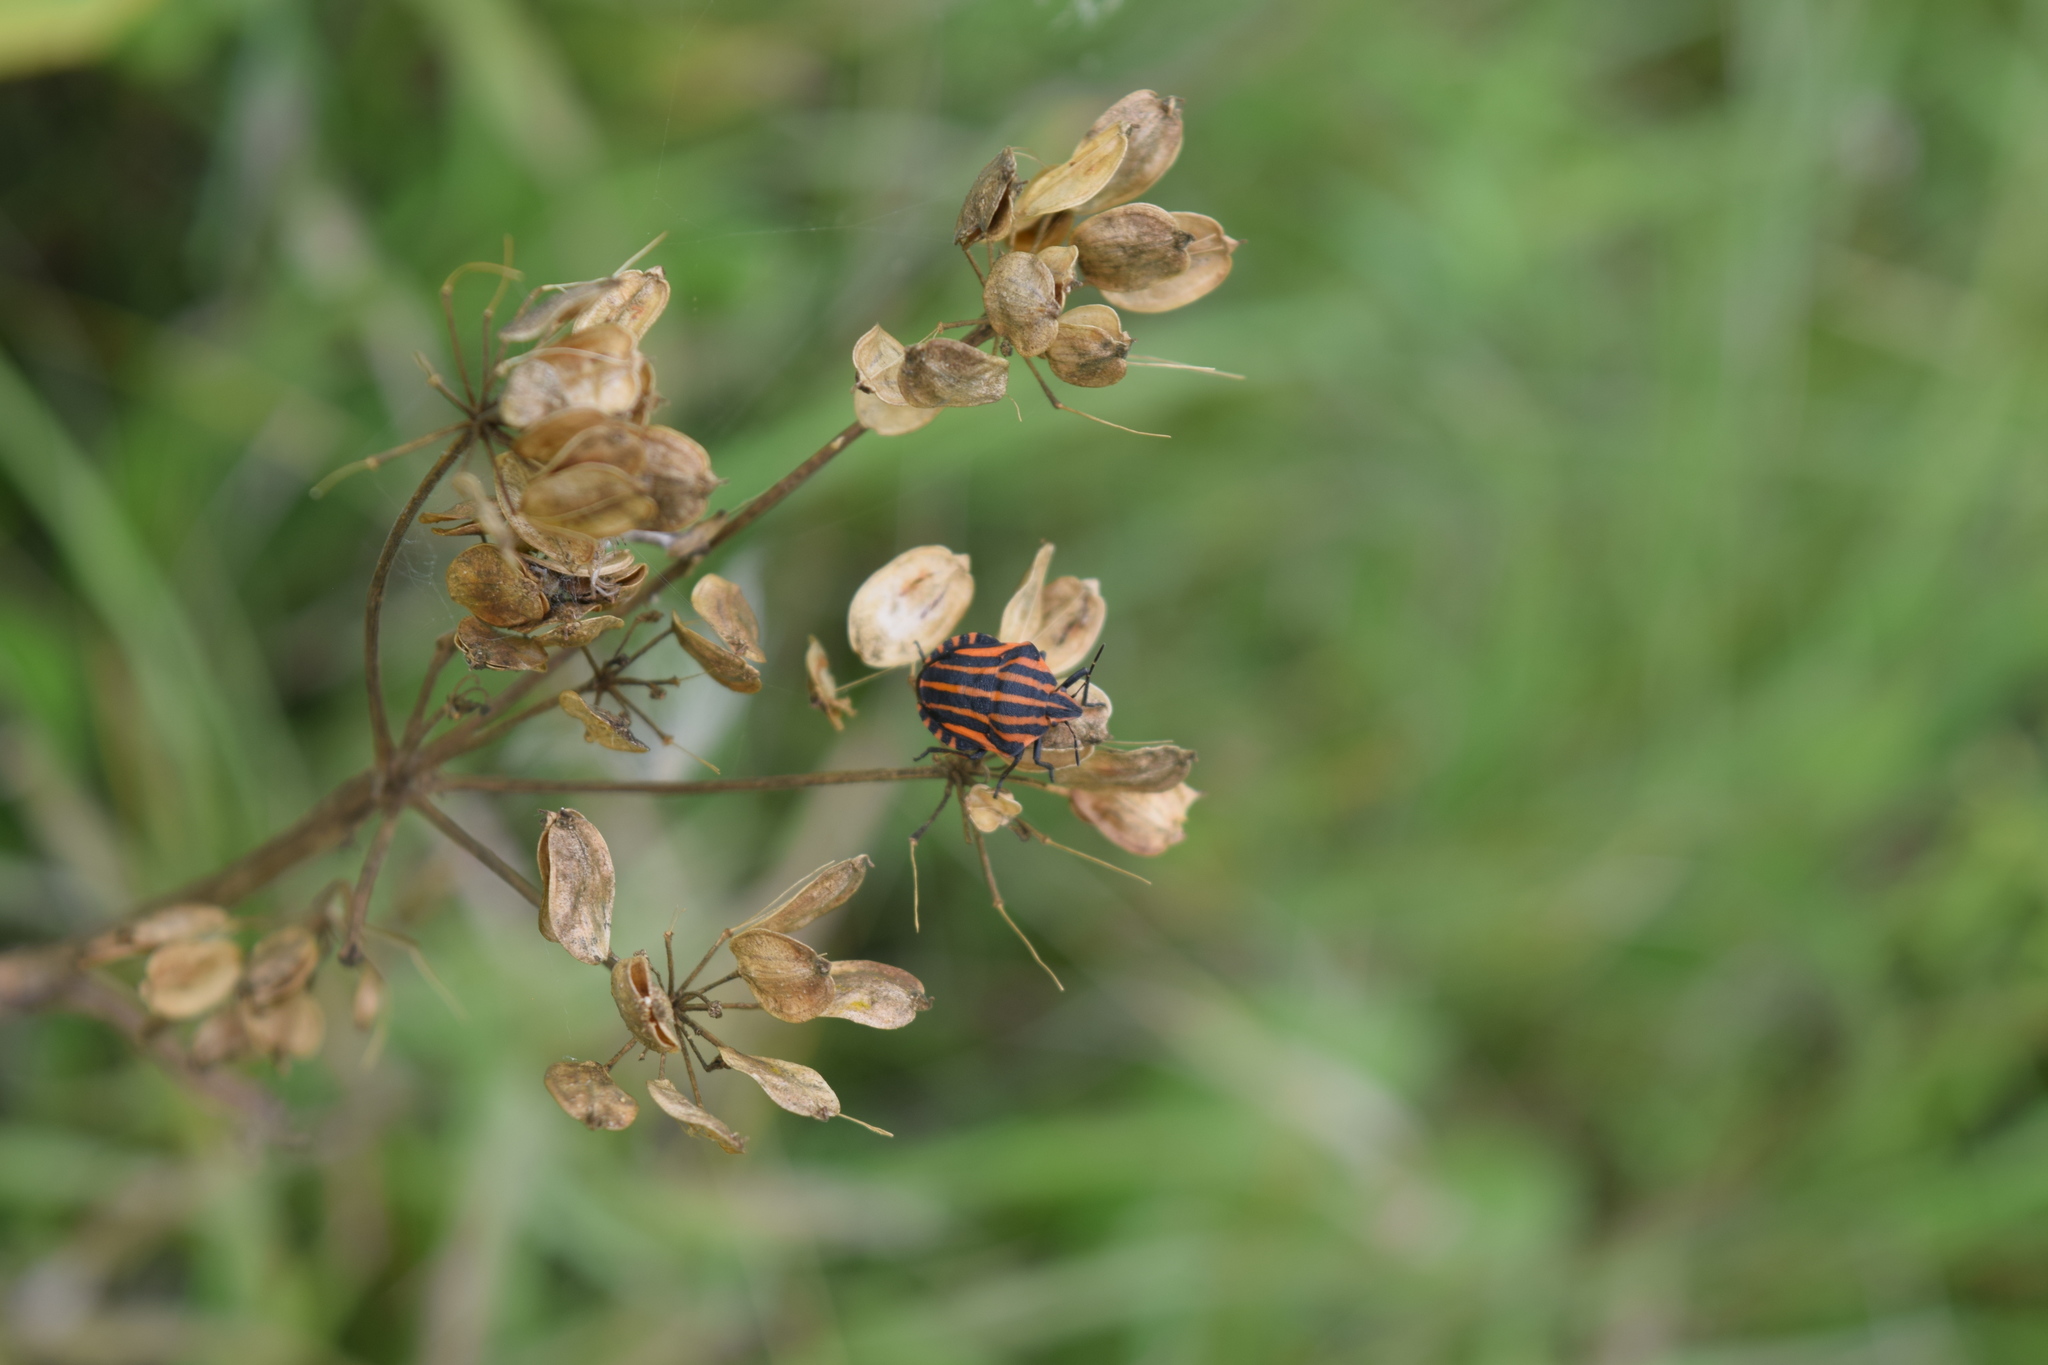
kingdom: Animalia
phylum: Arthropoda
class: Insecta
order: Hemiptera
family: Pentatomidae
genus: Graphosoma
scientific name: Graphosoma italicum
